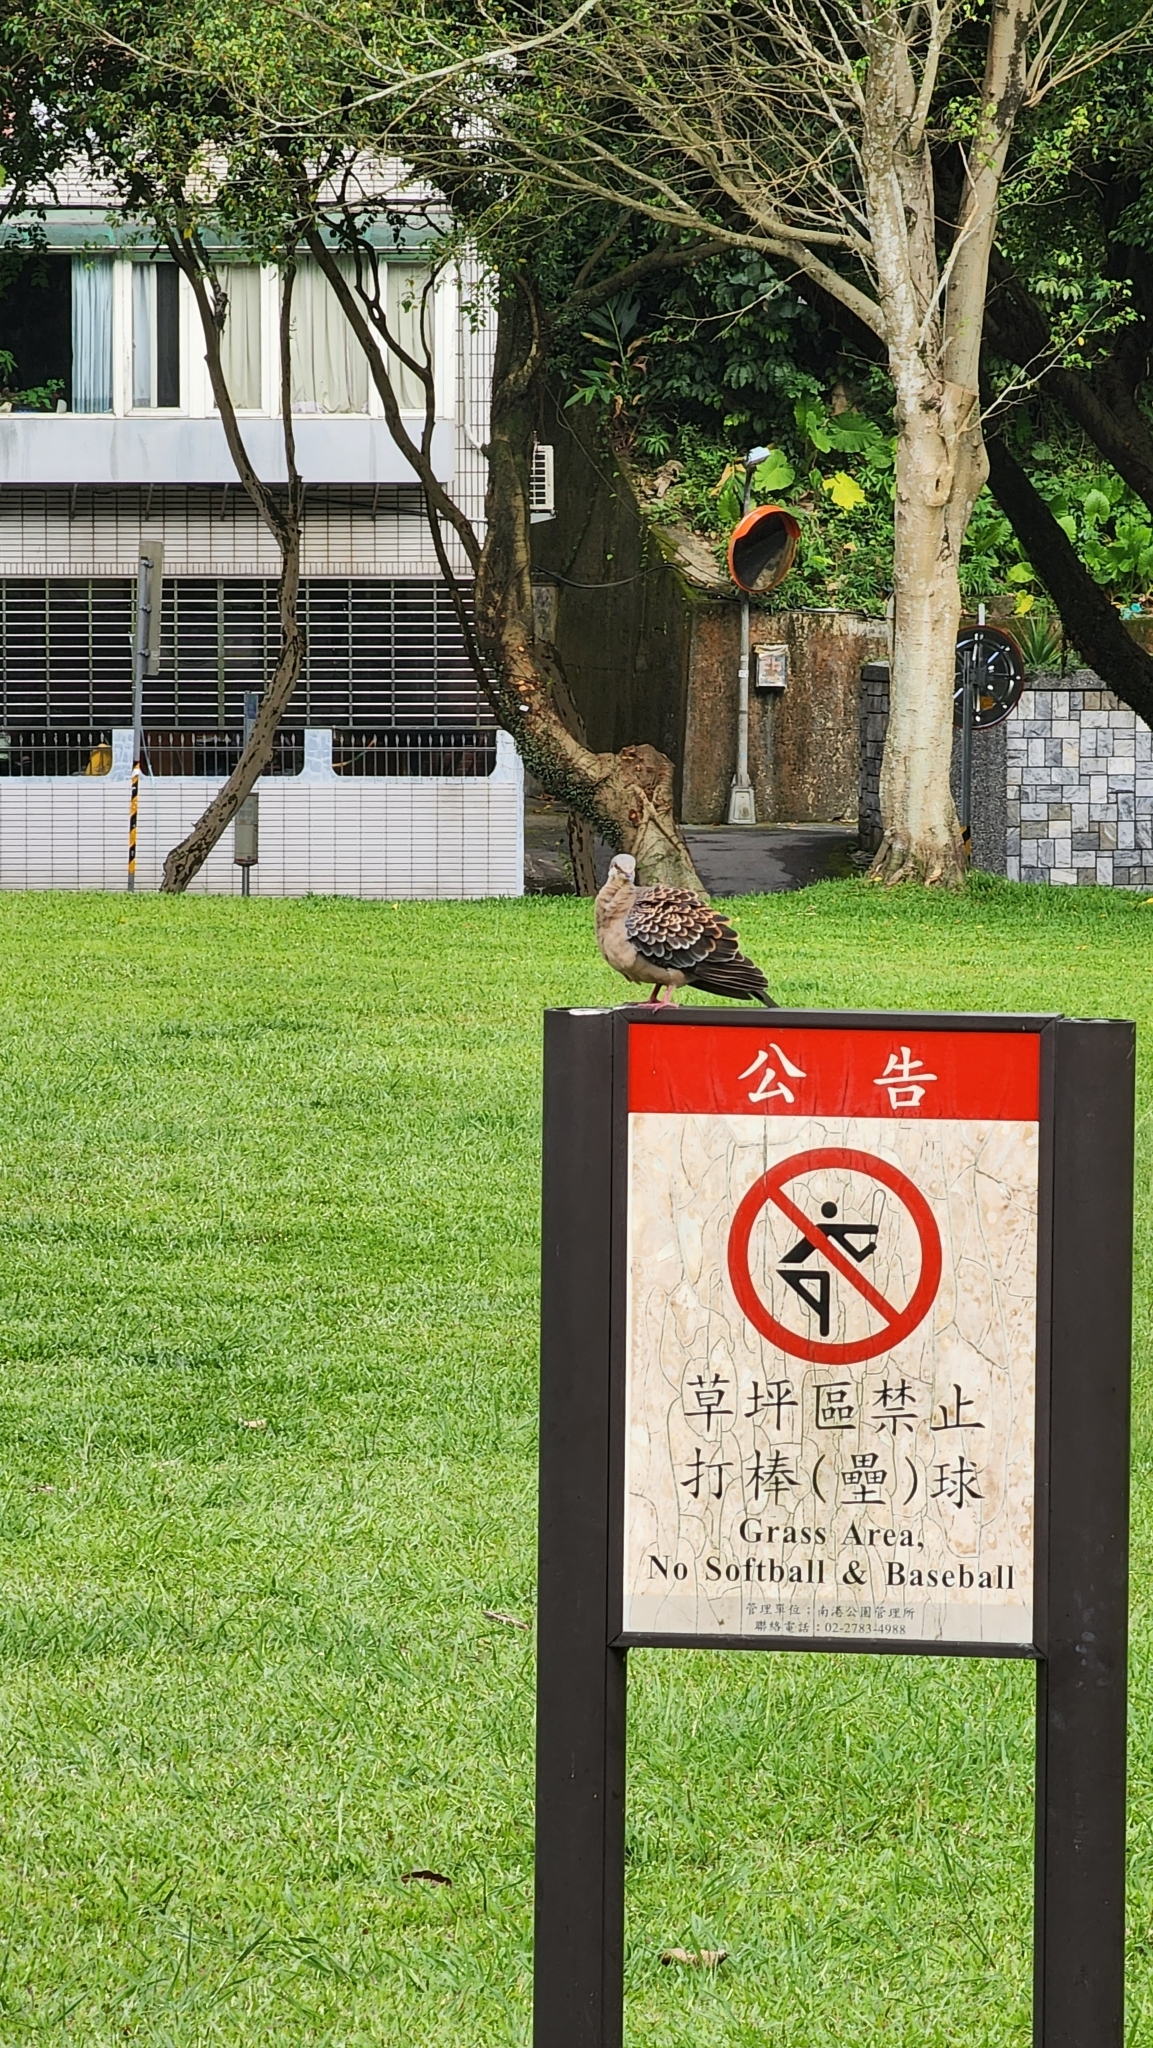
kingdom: Animalia
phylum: Chordata
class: Aves
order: Columbiformes
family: Columbidae
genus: Streptopelia
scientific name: Streptopelia orientalis
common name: Oriental turtle dove
